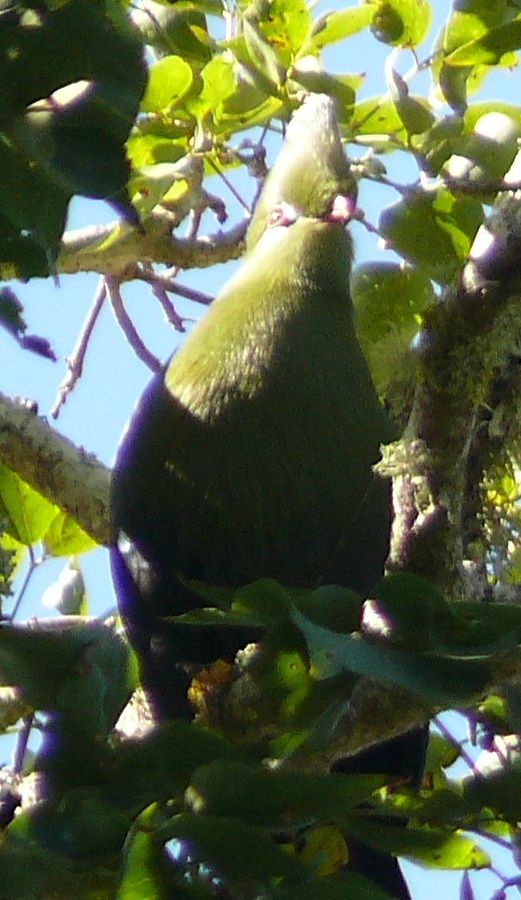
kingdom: Animalia
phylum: Chordata
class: Aves
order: Musophagiformes
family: Musophagidae
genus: Tauraco
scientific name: Tauraco corythaix
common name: Knysna turaco
